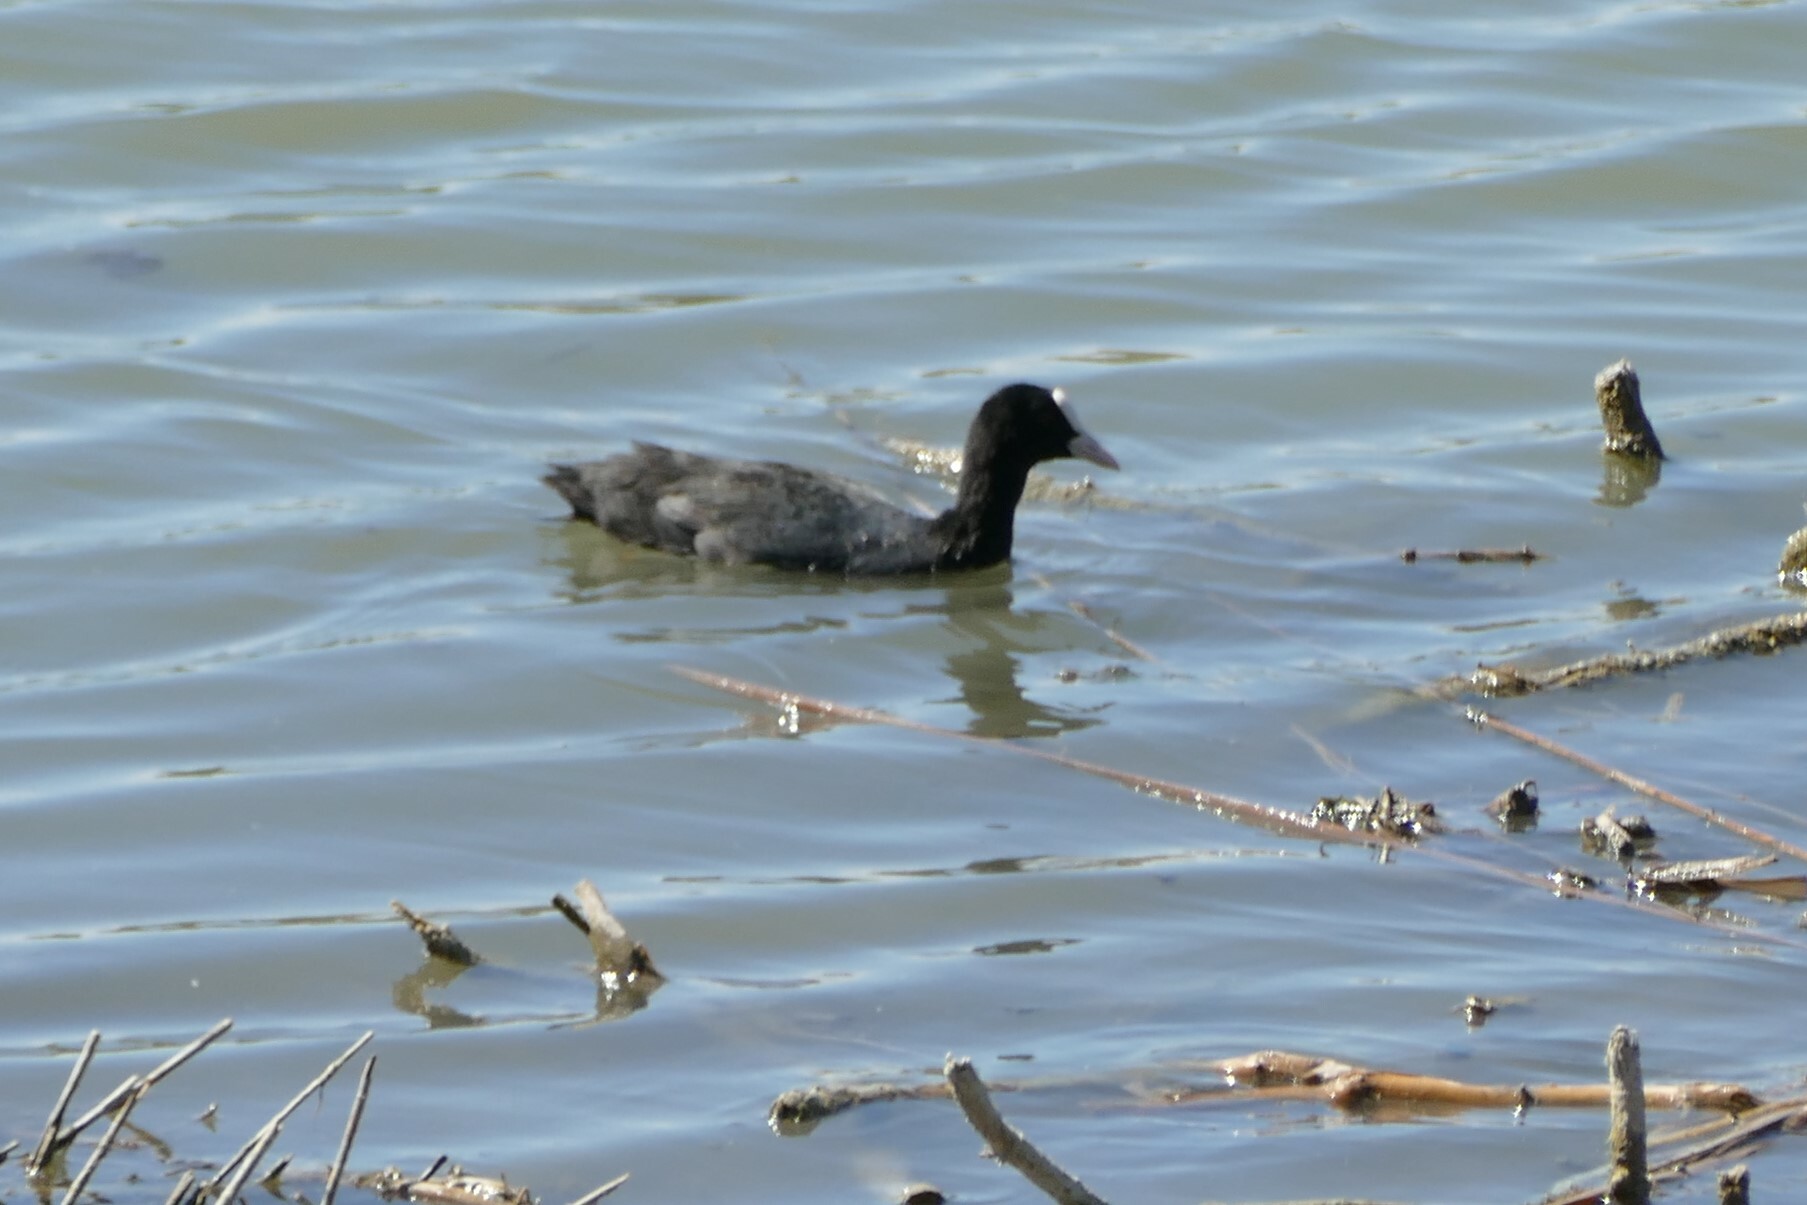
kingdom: Animalia
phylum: Chordata
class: Aves
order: Gruiformes
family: Rallidae
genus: Fulica
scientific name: Fulica atra
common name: Eurasian coot
